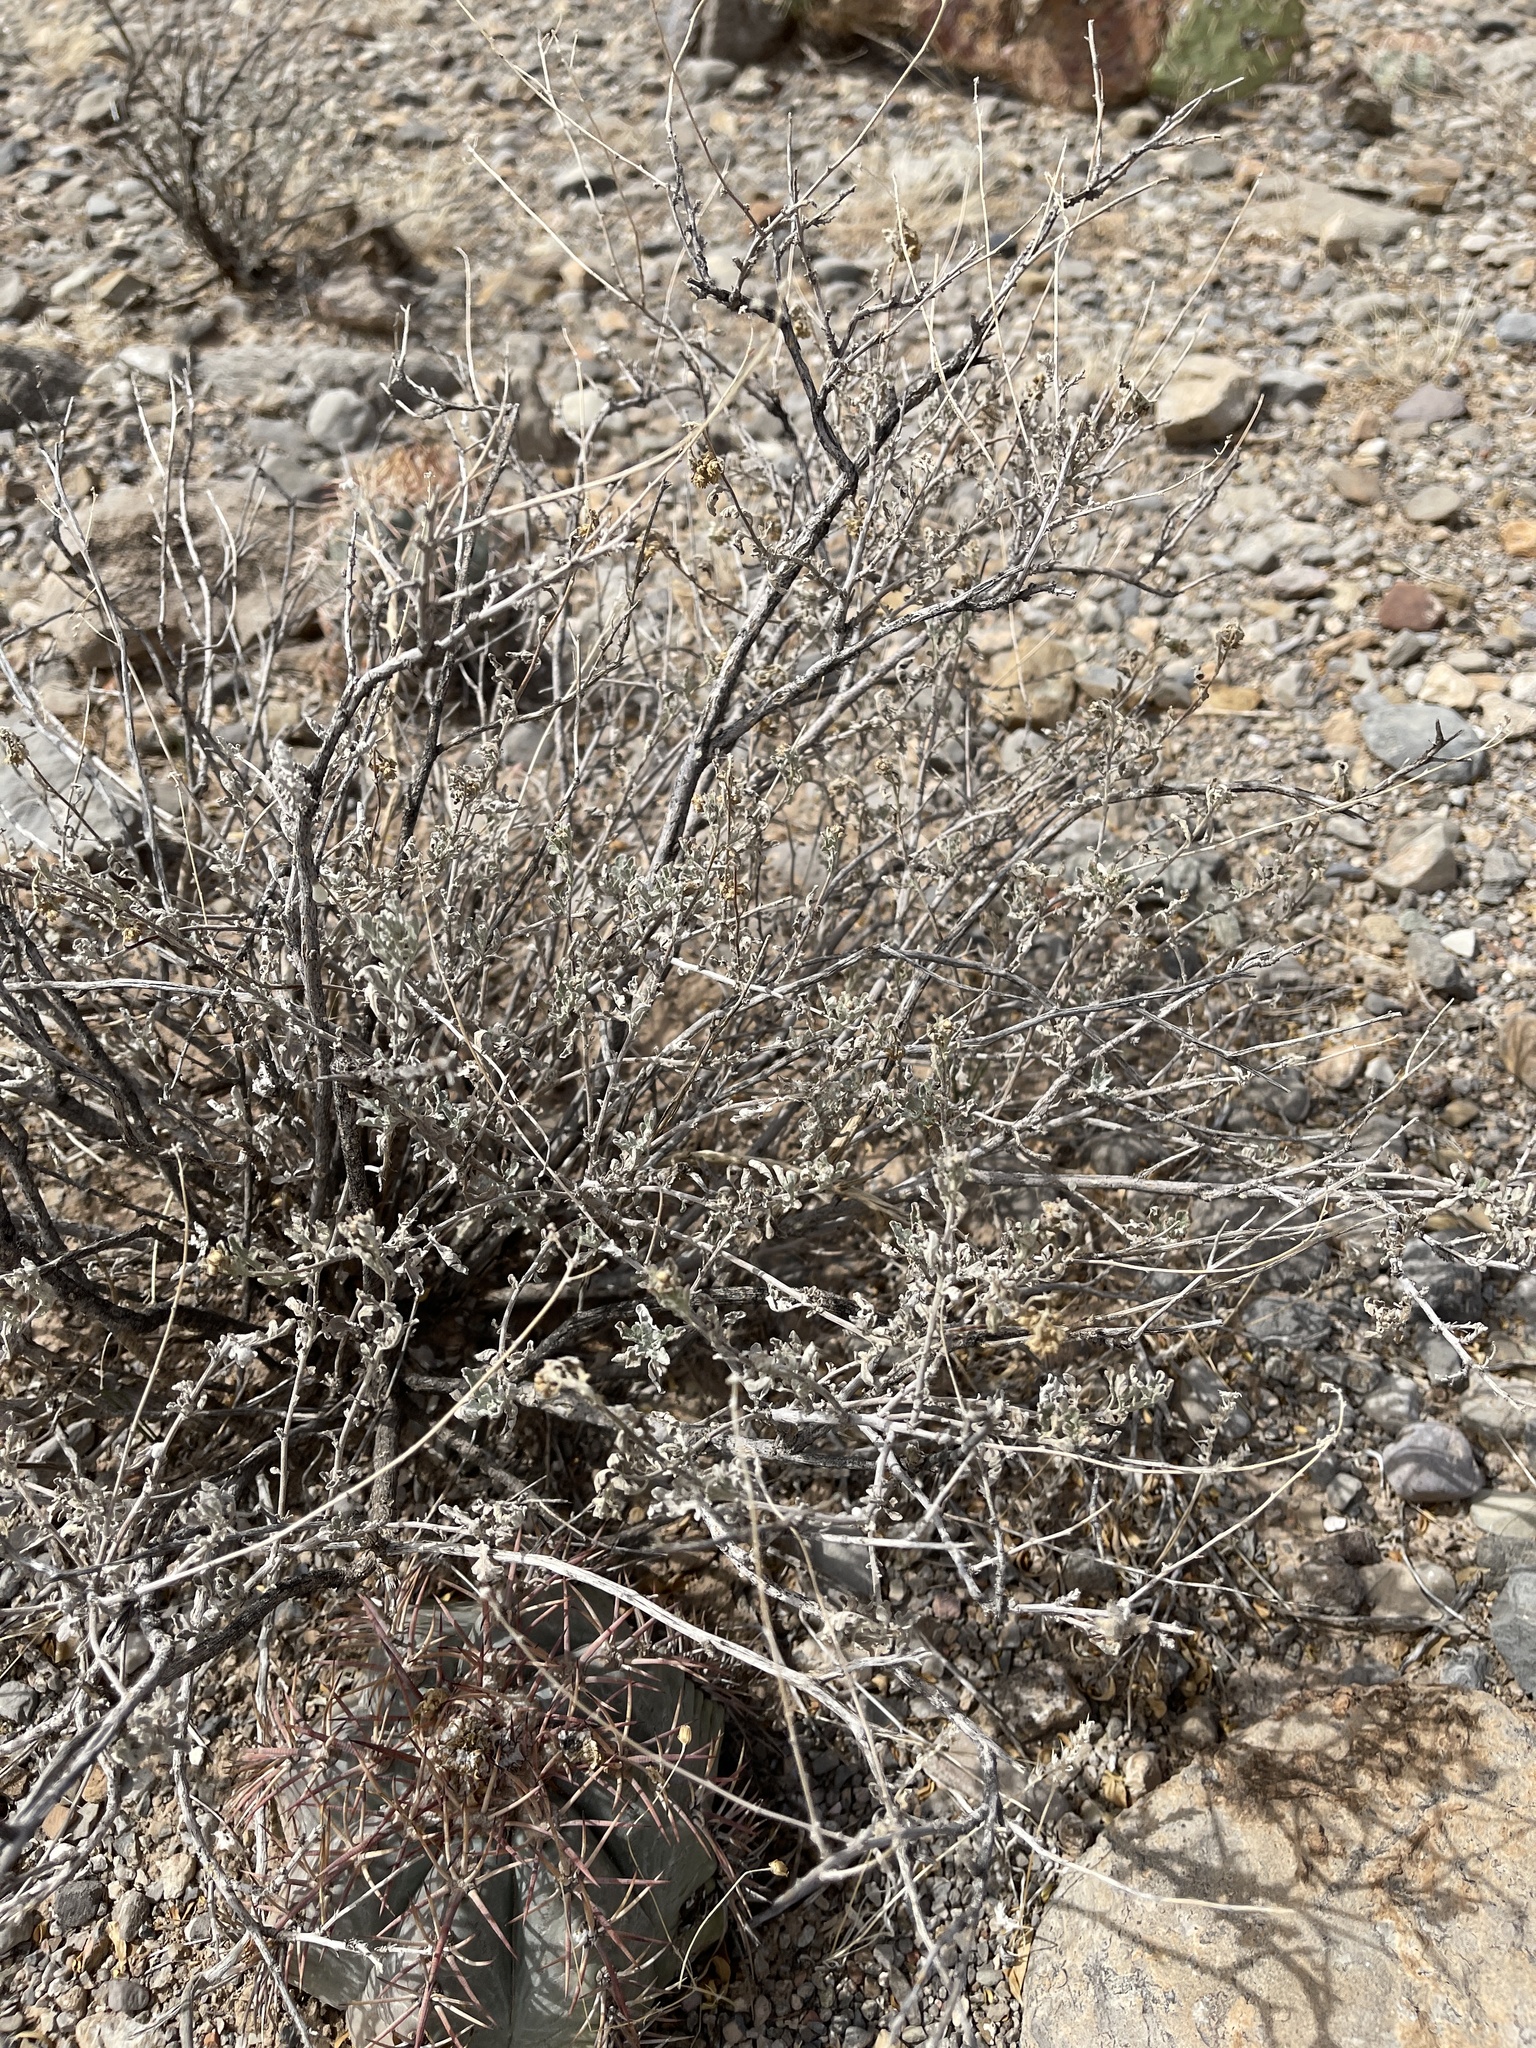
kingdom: Plantae
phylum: Tracheophyta
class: Magnoliopsida
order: Asterales
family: Asteraceae
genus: Parthenium
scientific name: Parthenium incanum
